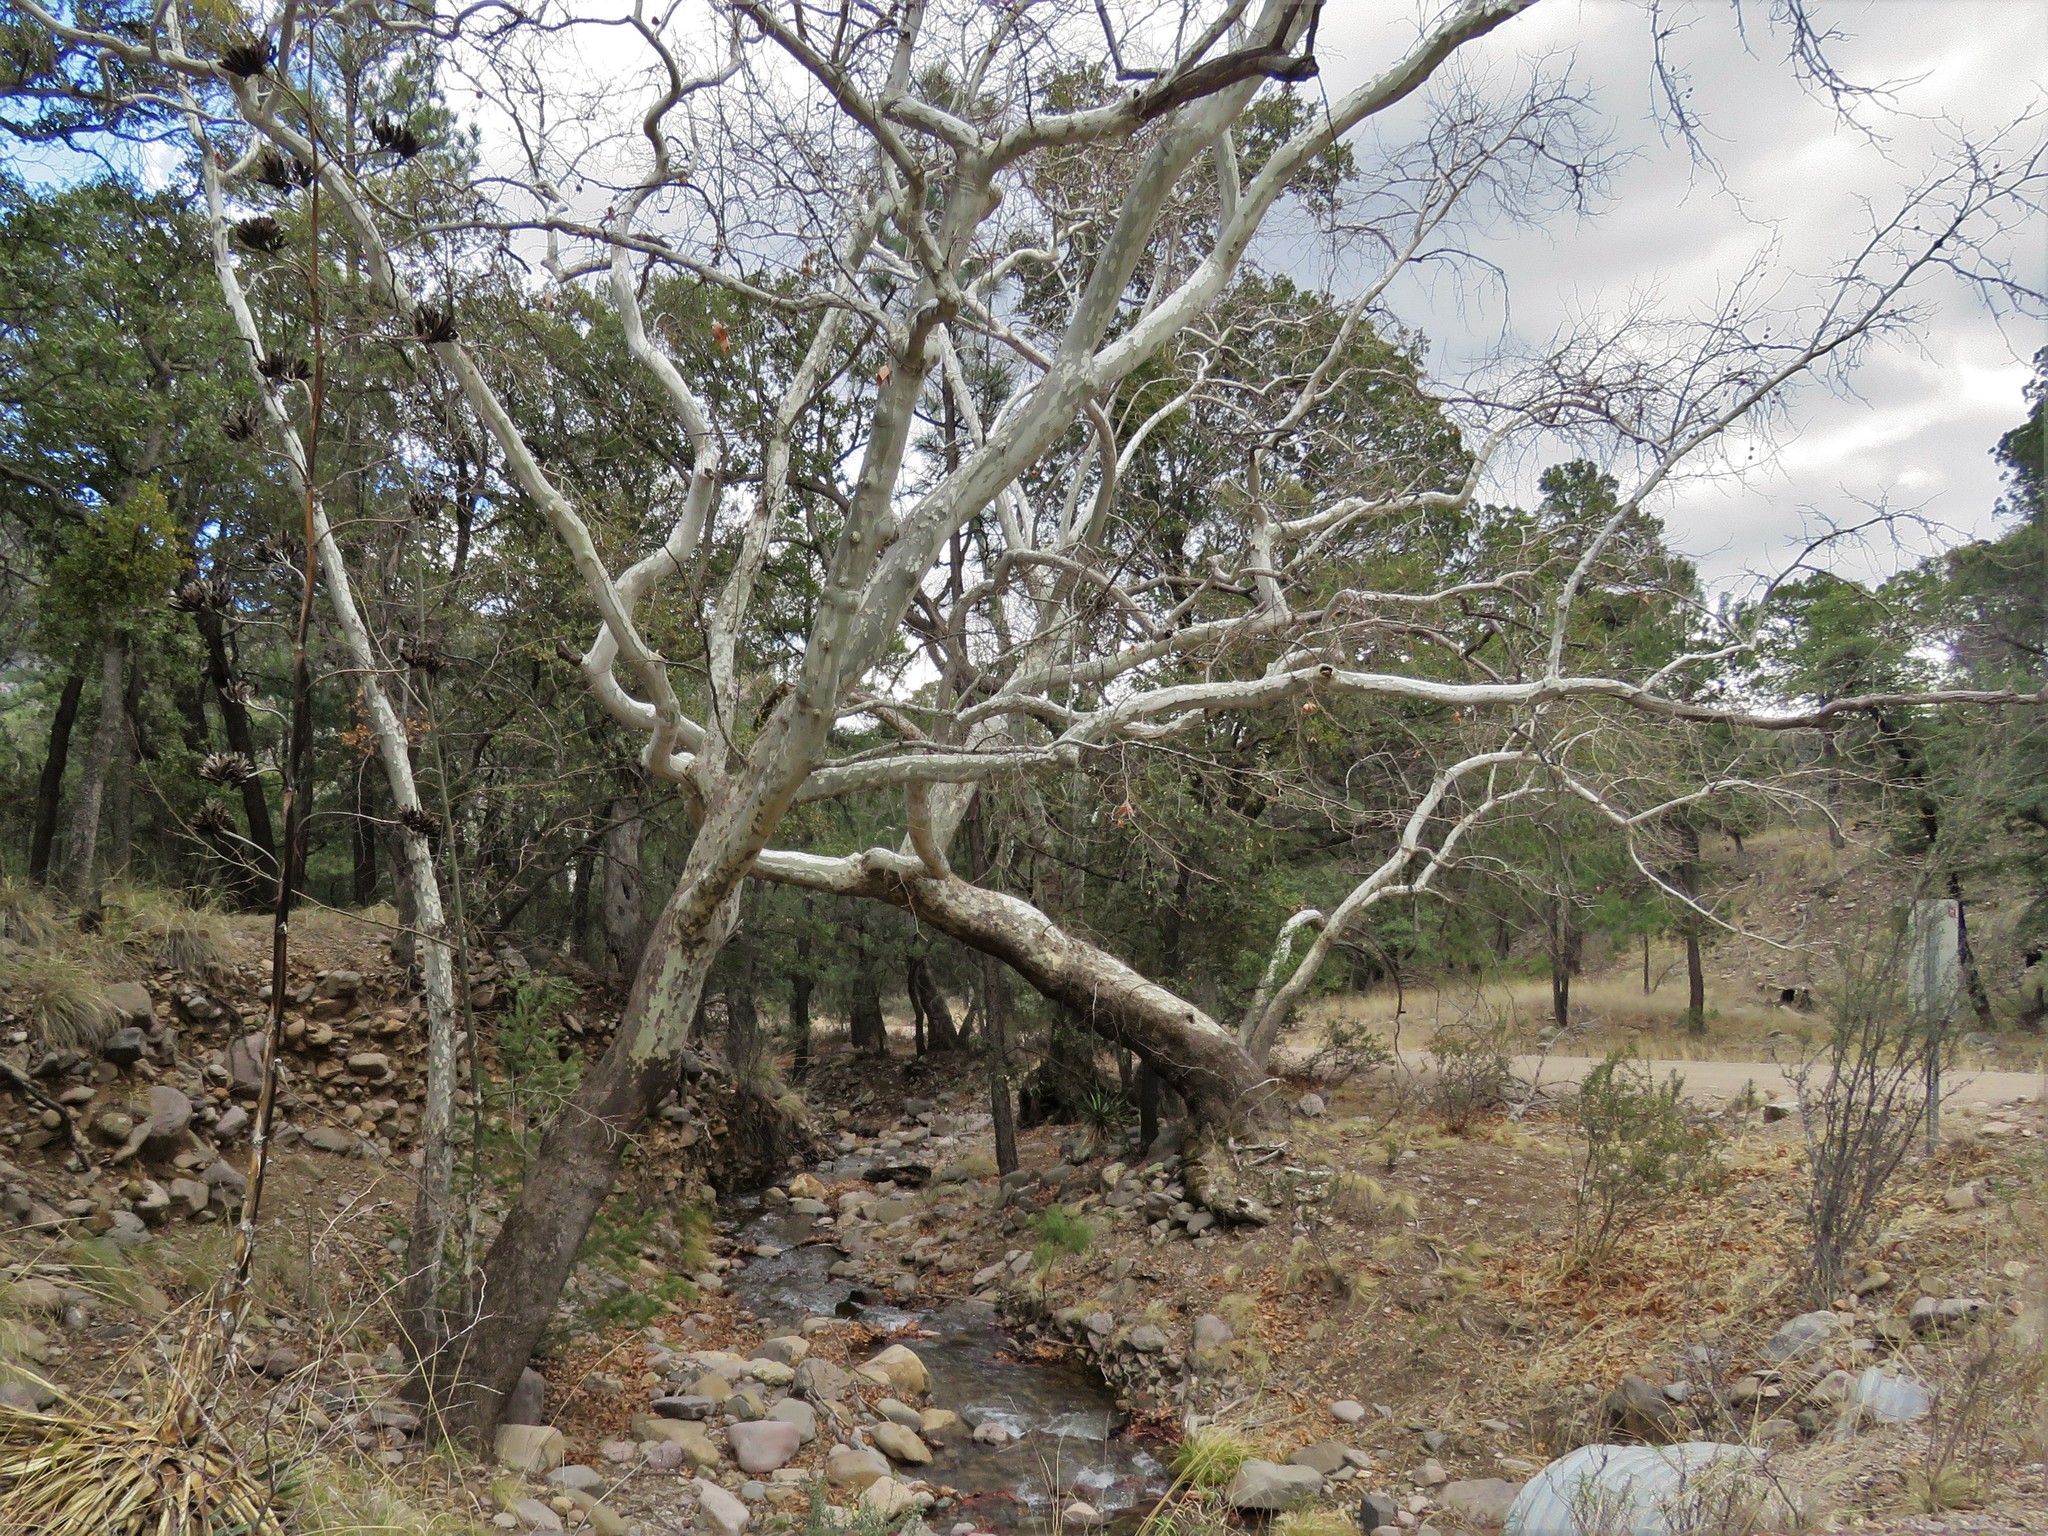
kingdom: Plantae
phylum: Tracheophyta
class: Magnoliopsida
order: Proteales
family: Platanaceae
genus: Platanus
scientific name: Platanus wrightii
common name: Arizona sycamore
